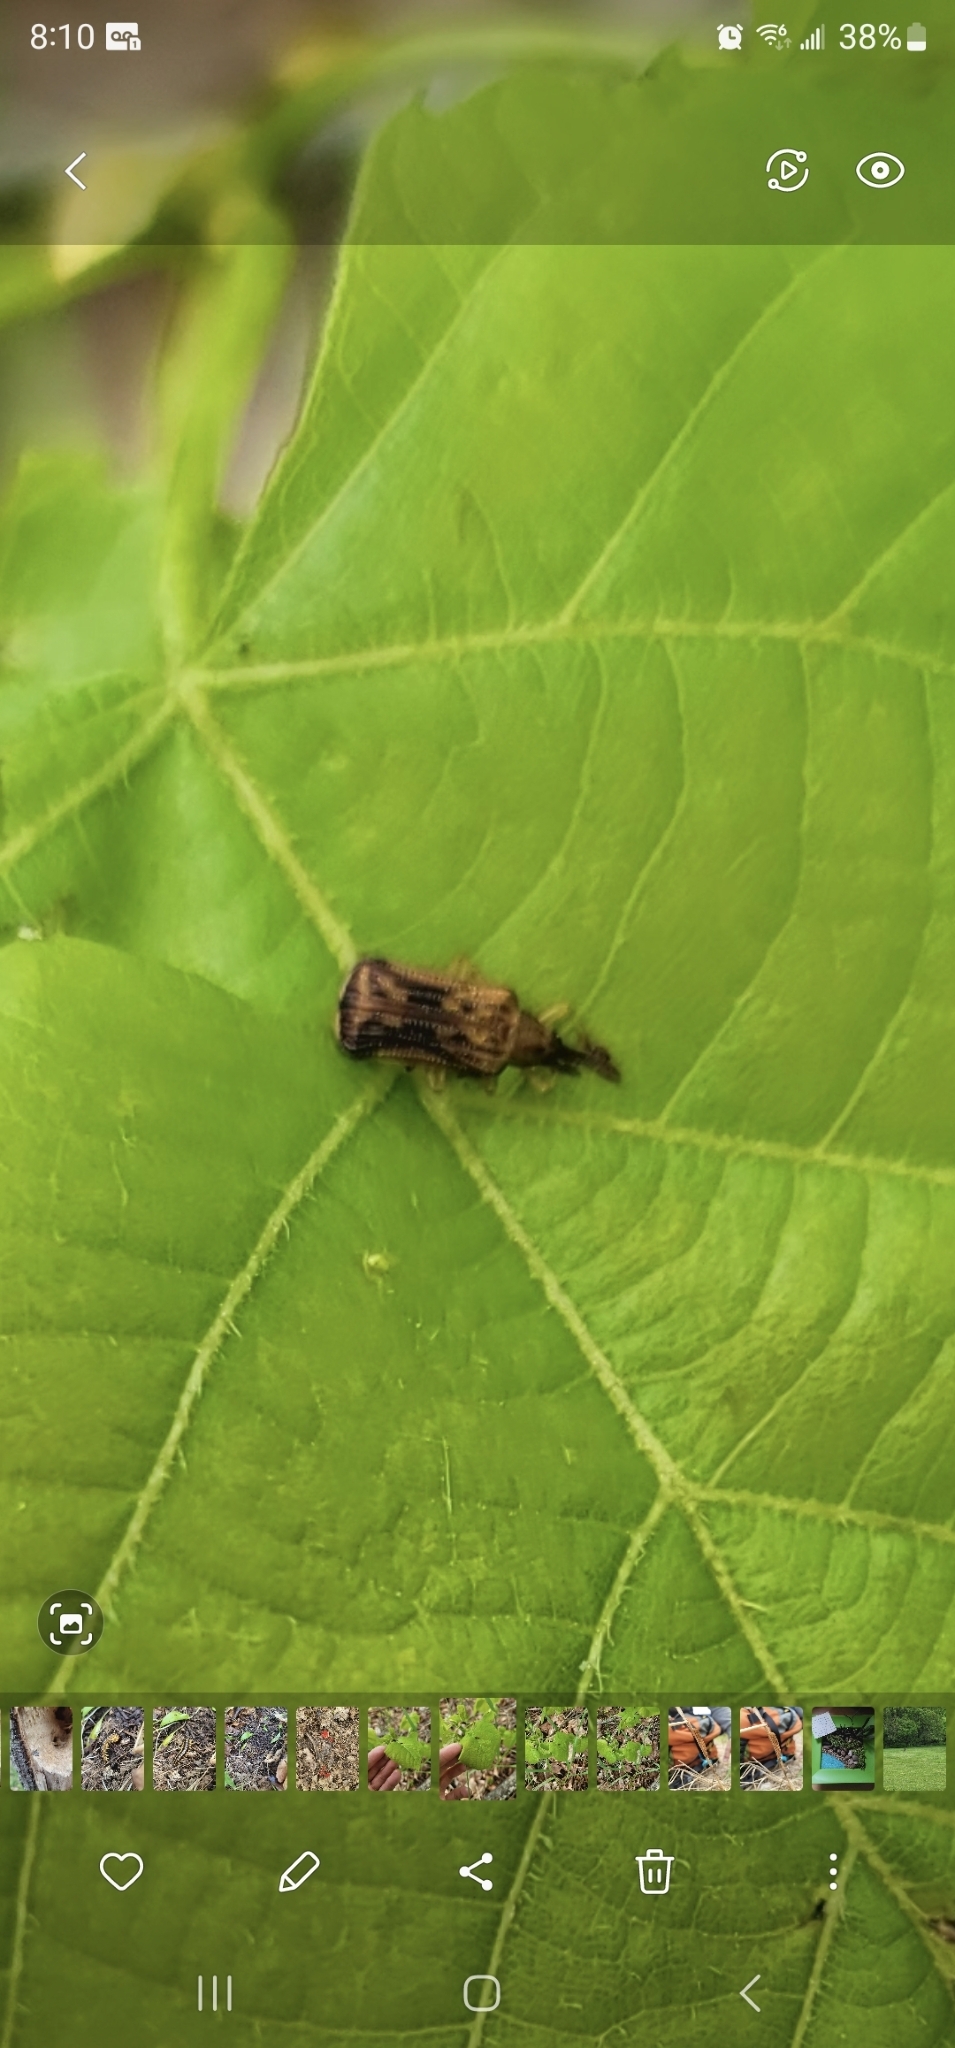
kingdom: Animalia
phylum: Arthropoda
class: Insecta
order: Coleoptera
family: Chrysomelidae
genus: Baliosus
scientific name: Baliosus nervosus
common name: Basswood leaf miner
